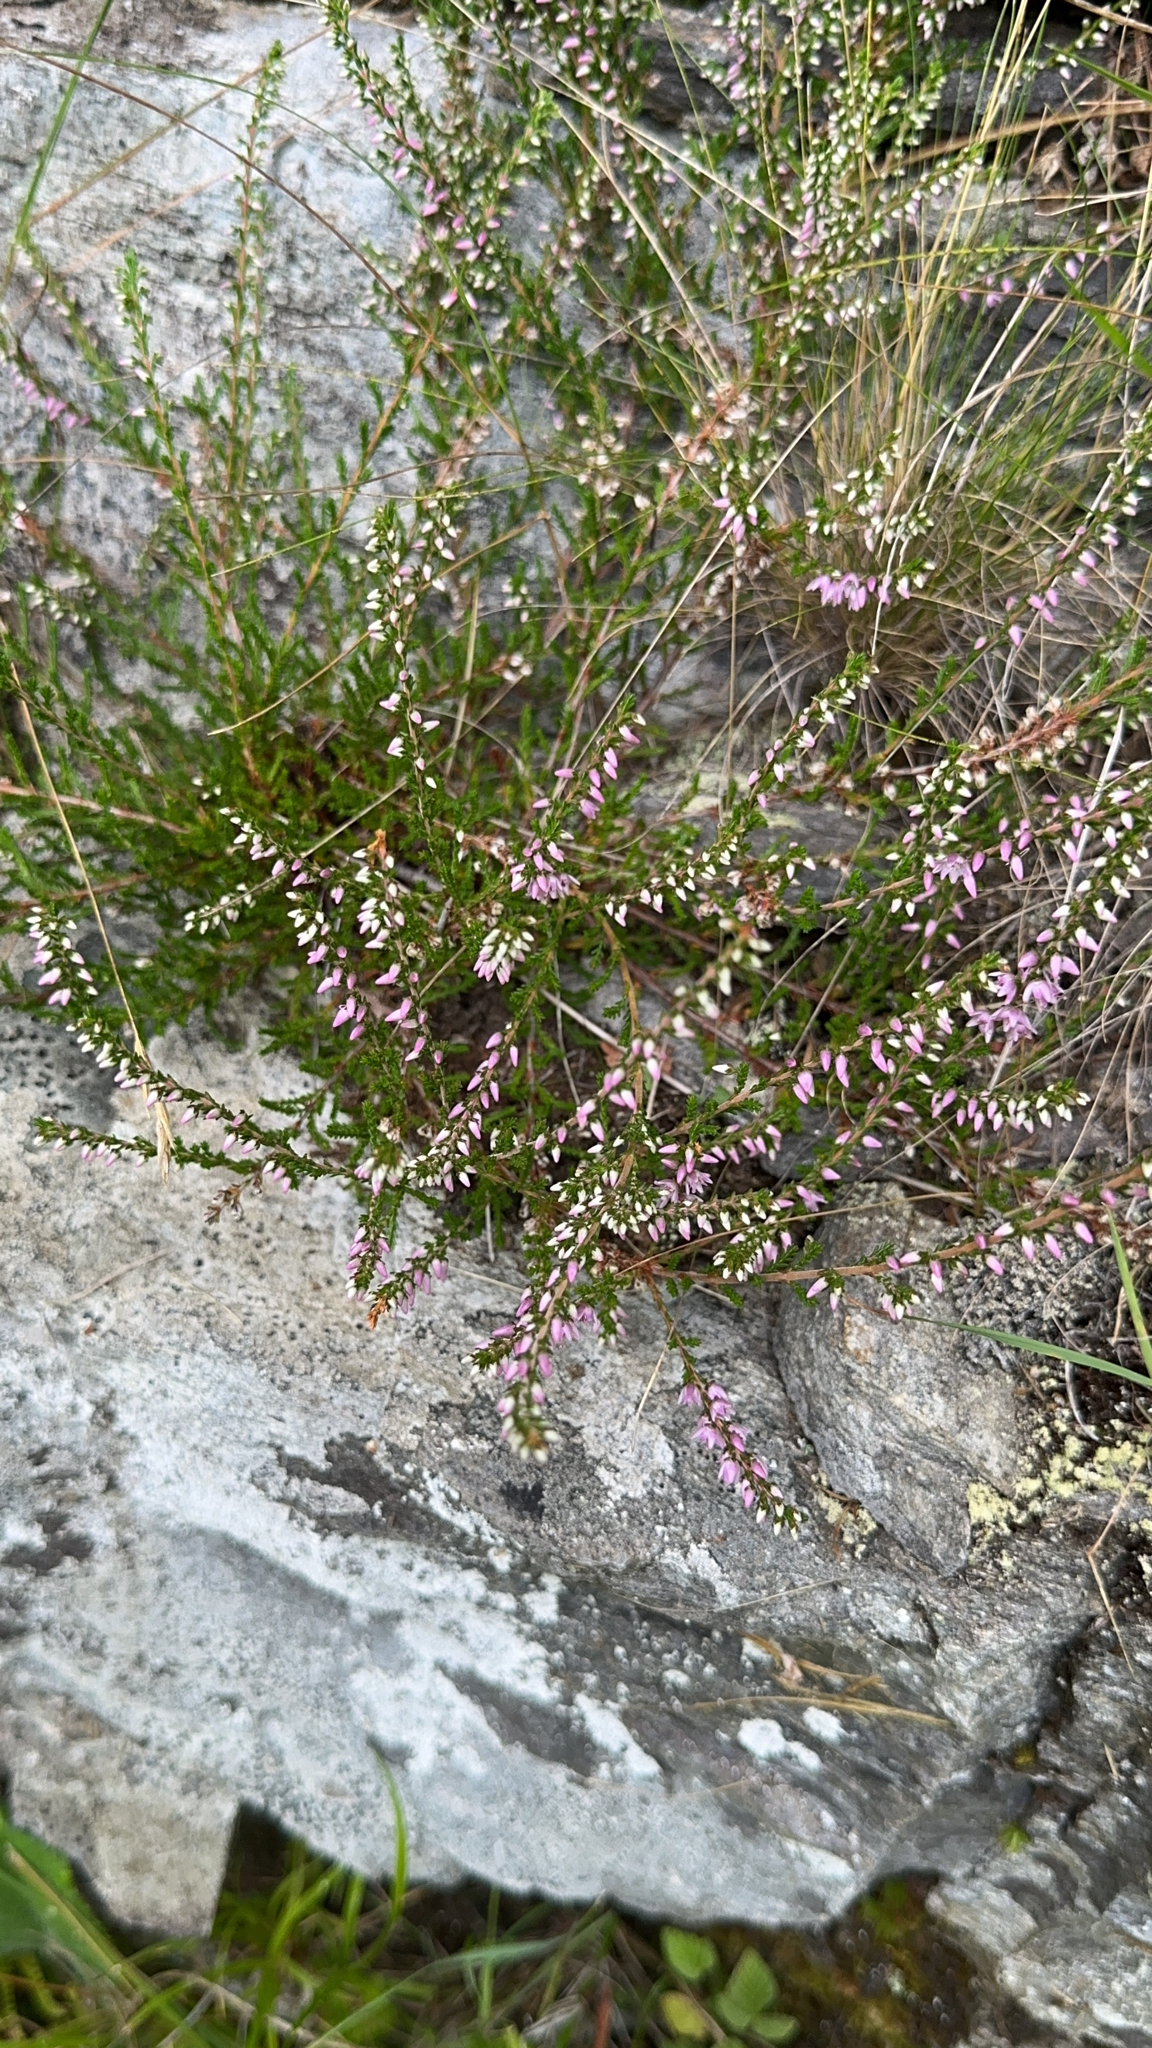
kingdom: Plantae
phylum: Tracheophyta
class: Magnoliopsida
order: Ericales
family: Ericaceae
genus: Calluna
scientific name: Calluna vulgaris
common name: Heather
